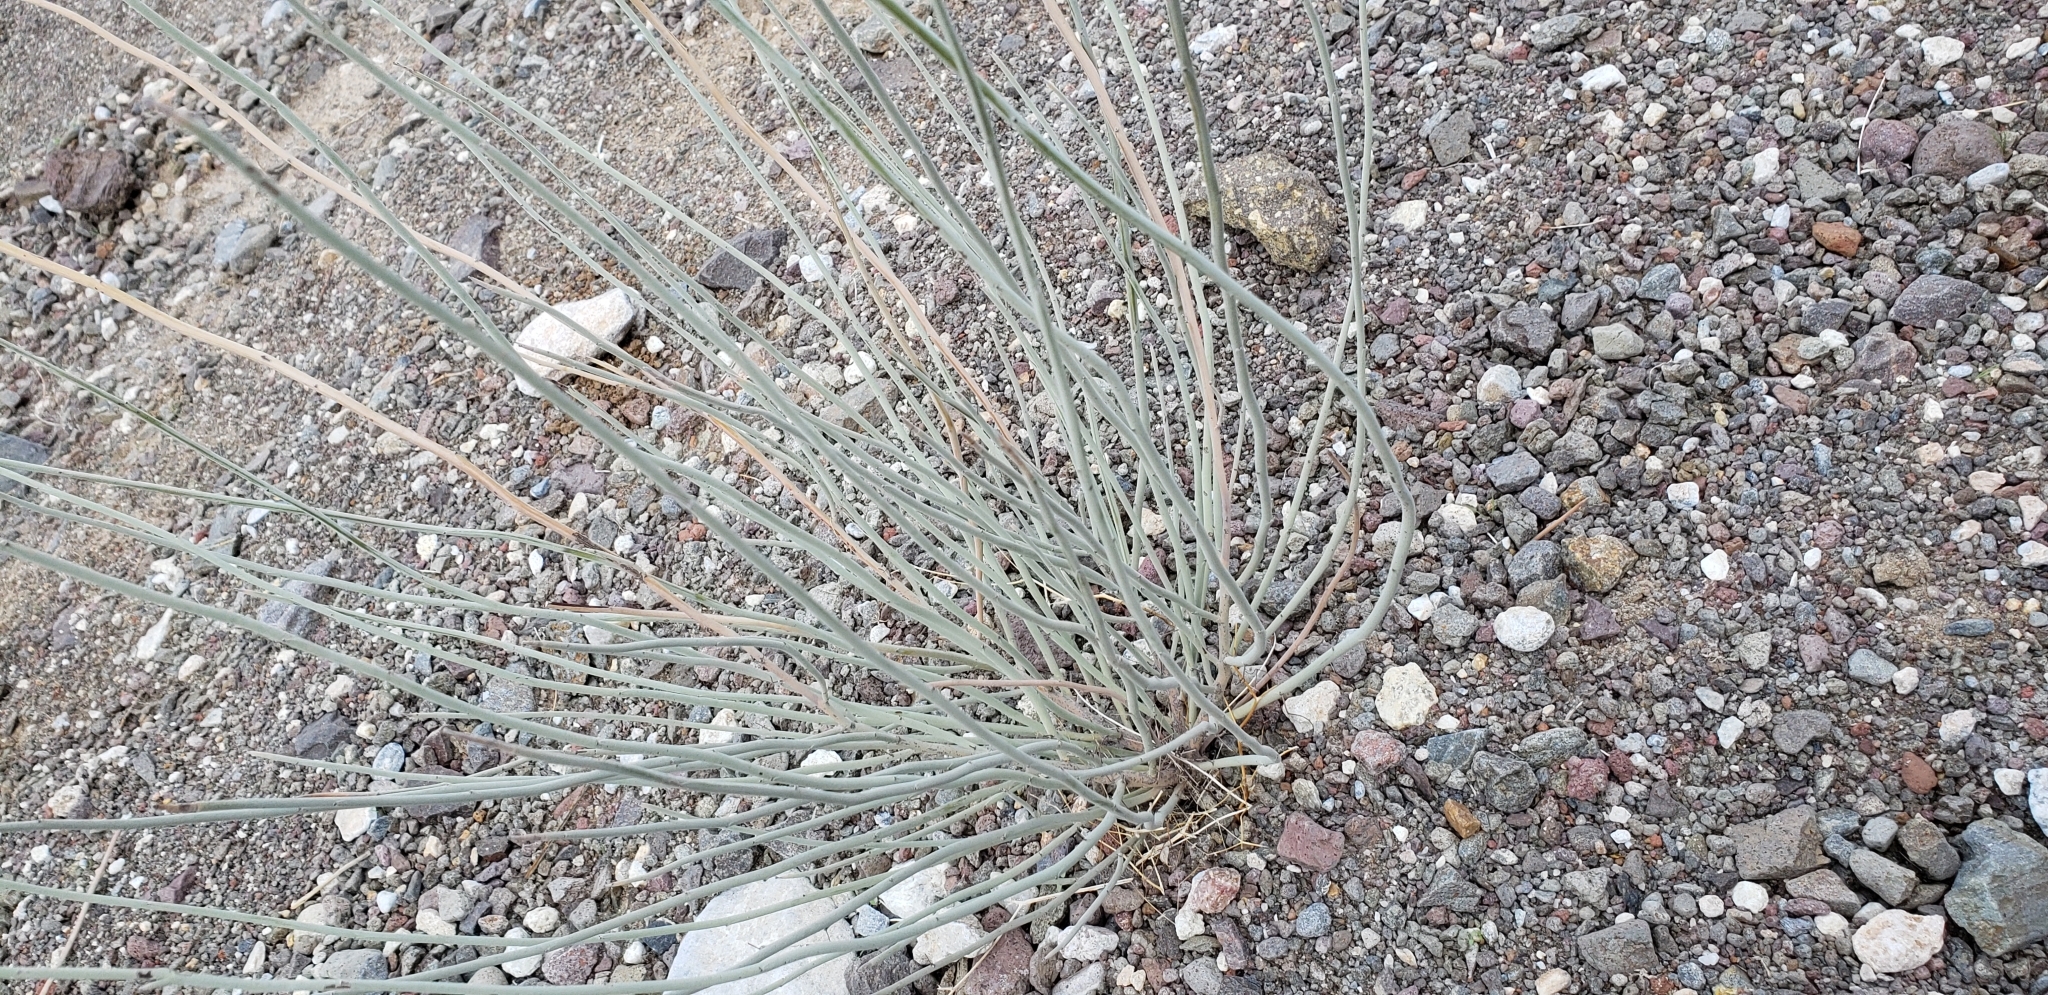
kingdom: Plantae
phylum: Tracheophyta
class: Magnoliopsida
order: Gentianales
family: Apocynaceae
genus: Asclepias
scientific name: Asclepias albicans
